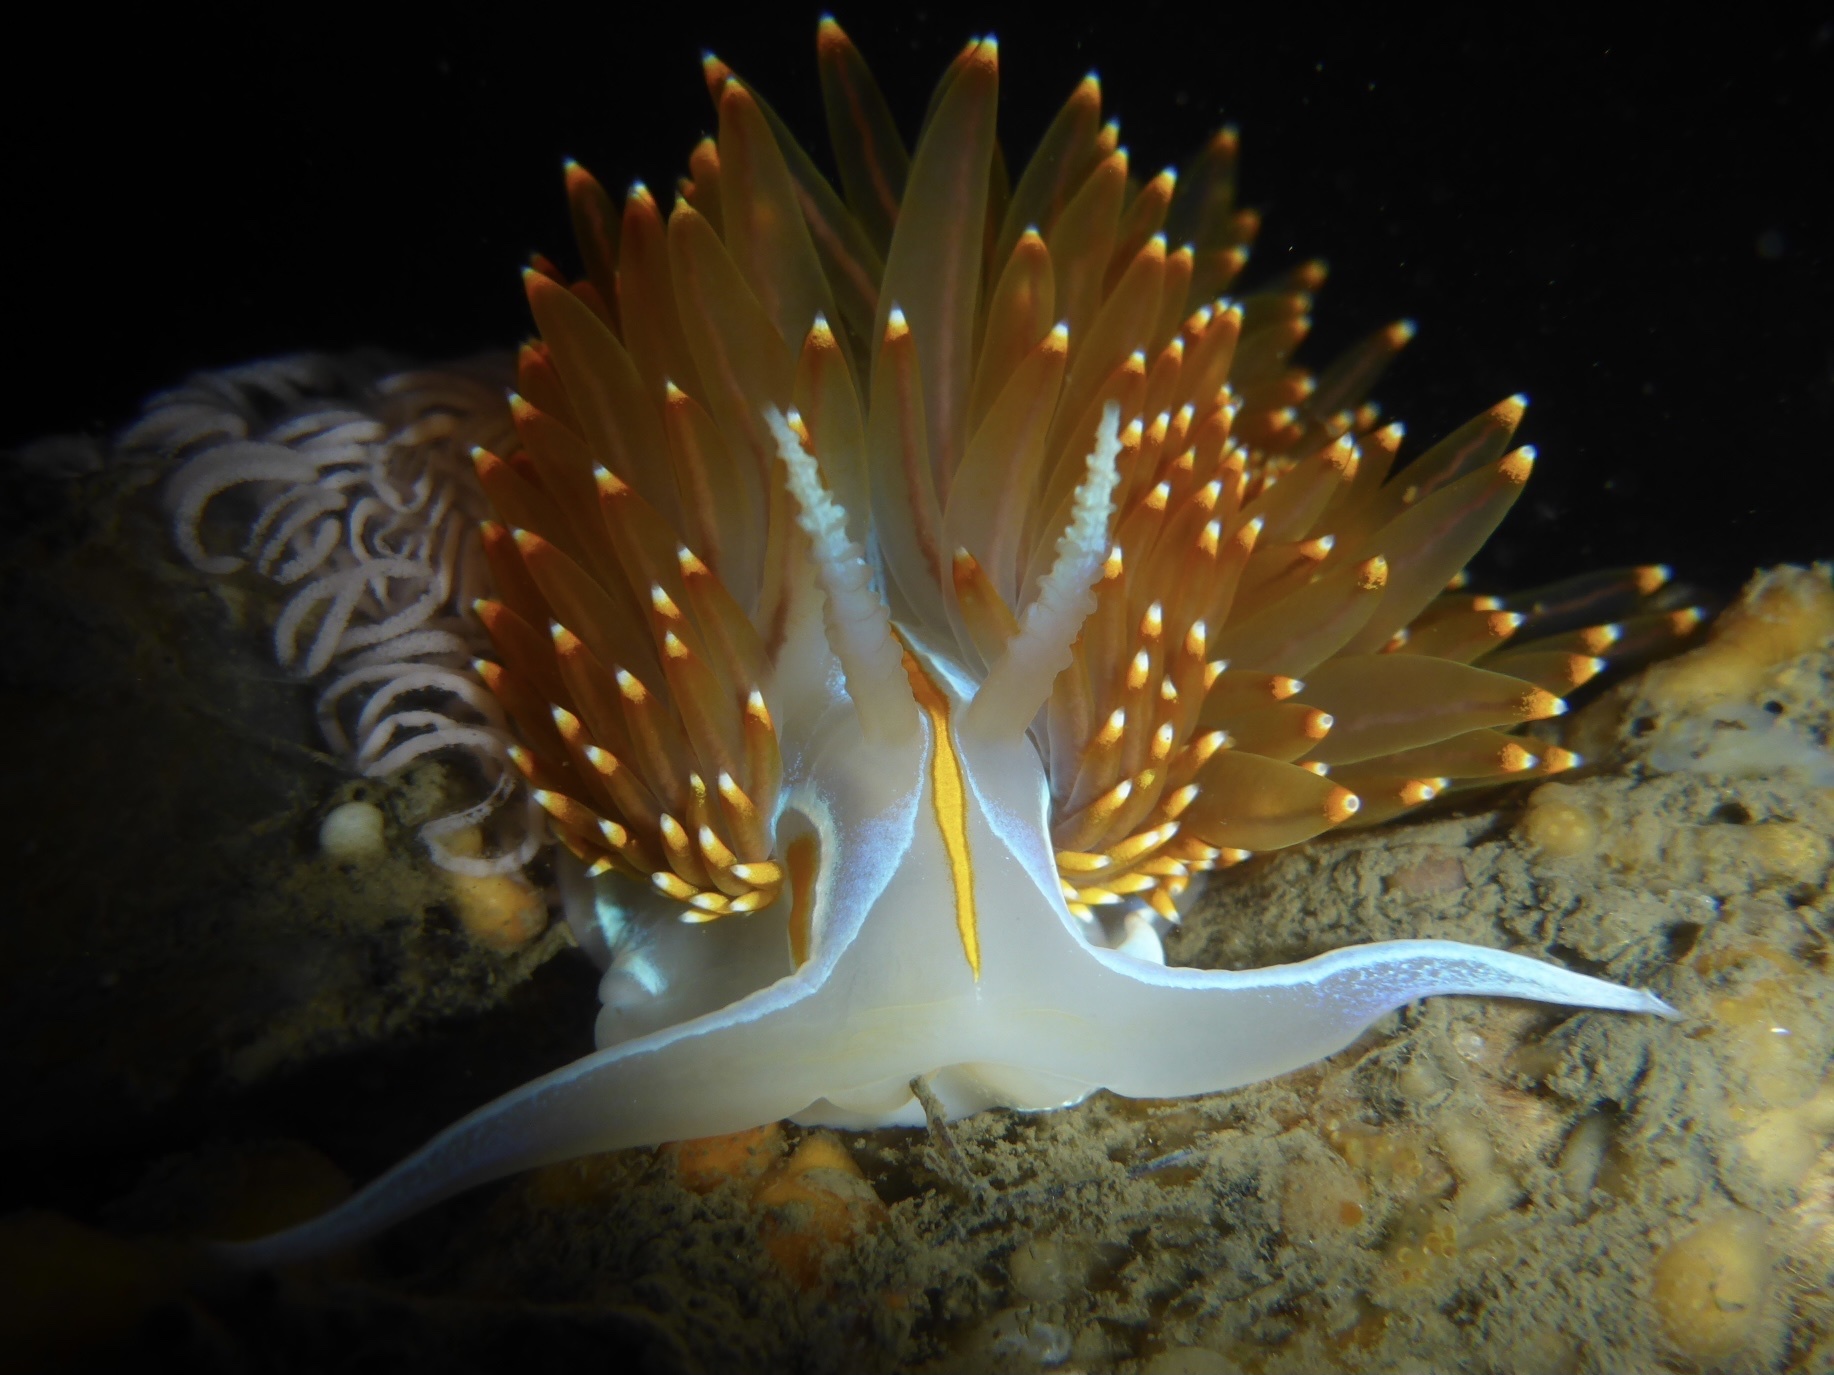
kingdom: Animalia
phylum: Mollusca
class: Gastropoda
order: Nudibranchia
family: Myrrhinidae
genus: Hermissenda
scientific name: Hermissenda opalescens
